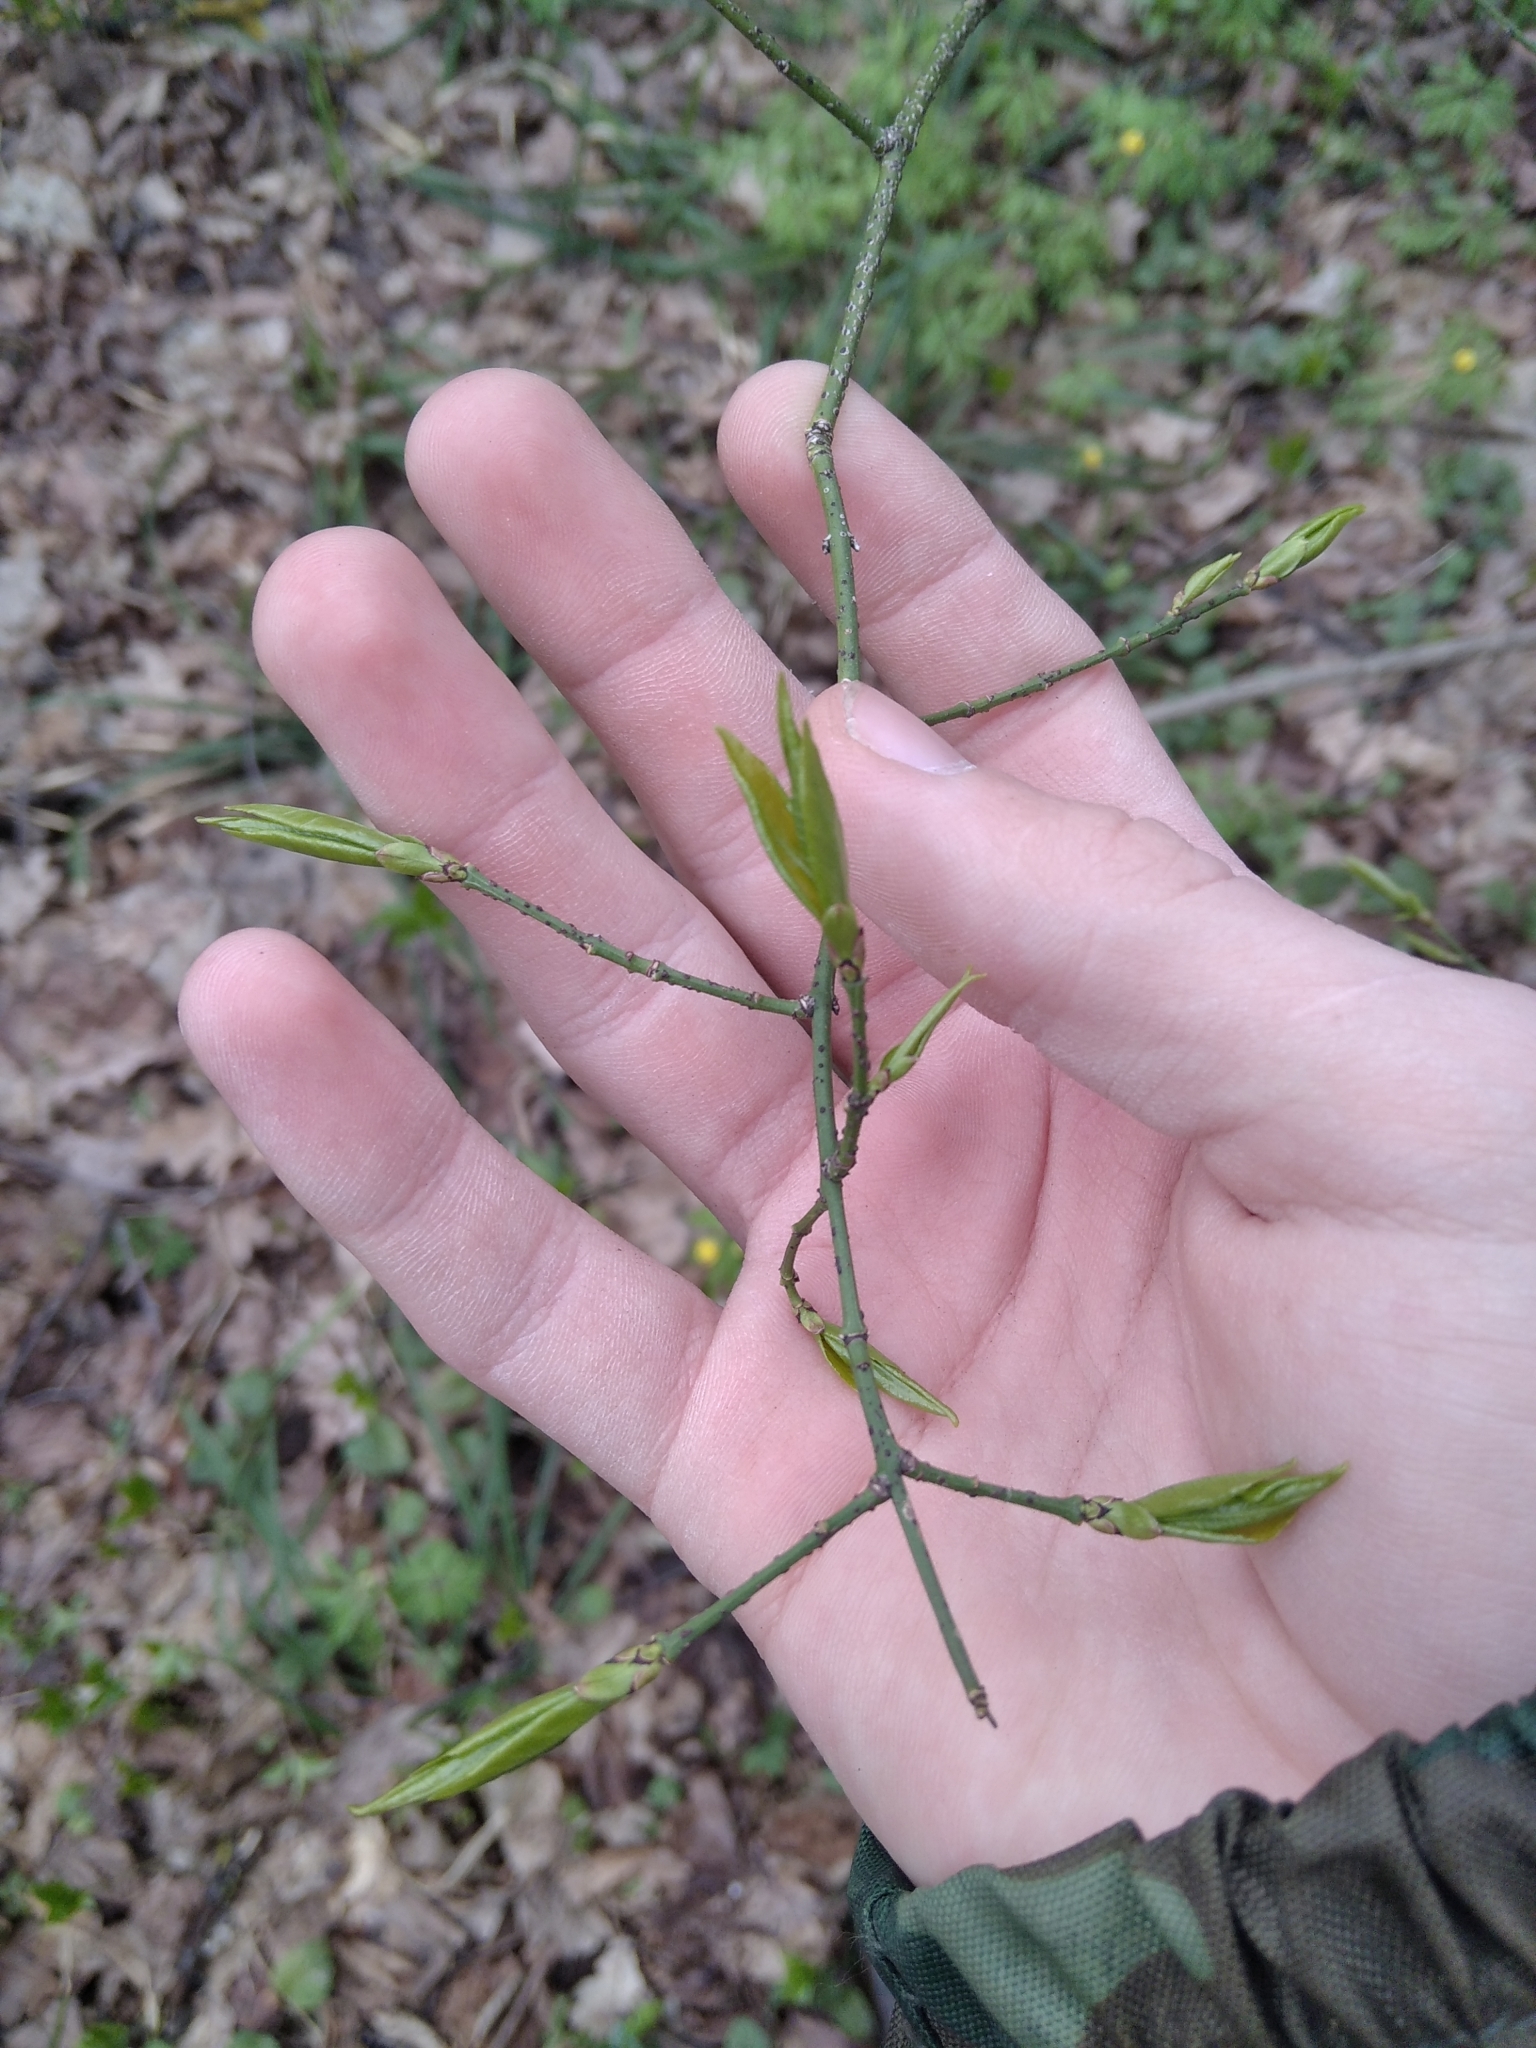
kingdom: Plantae
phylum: Tracheophyta
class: Magnoliopsida
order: Celastrales
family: Celastraceae
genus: Euonymus
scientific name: Euonymus verrucosus
